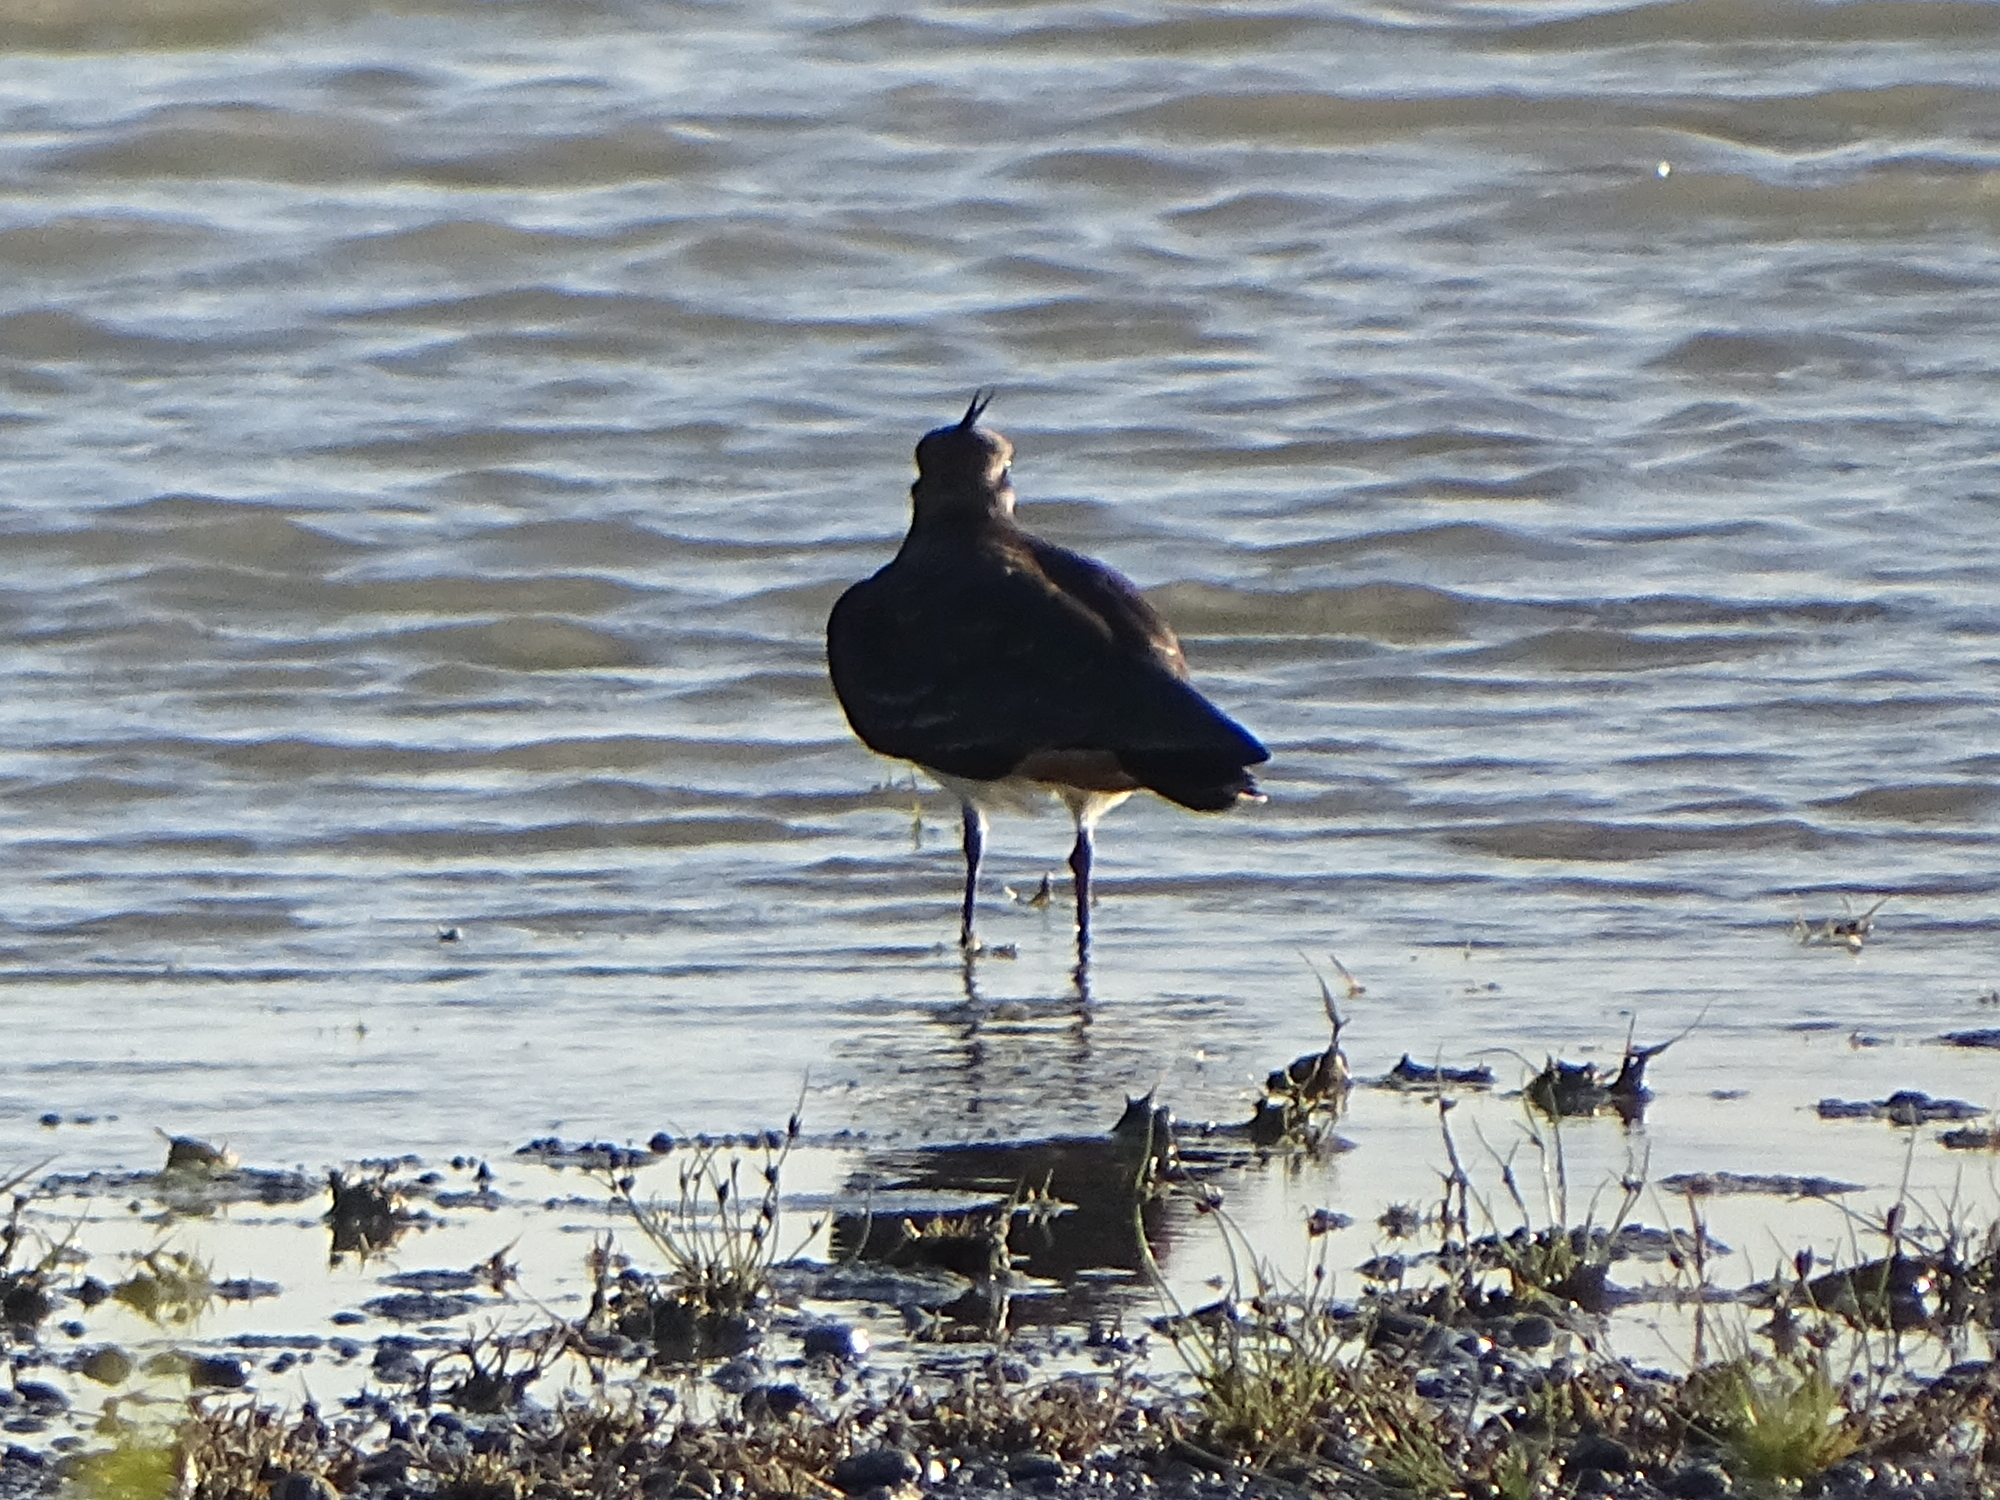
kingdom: Animalia
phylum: Chordata
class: Aves
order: Charadriiformes
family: Charadriidae
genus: Vanellus
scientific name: Vanellus vanellus
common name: Northern lapwing
